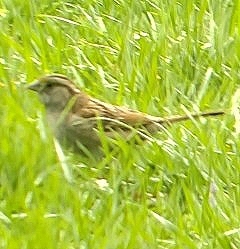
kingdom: Animalia
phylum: Chordata
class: Aves
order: Passeriformes
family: Passerellidae
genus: Zonotrichia
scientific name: Zonotrichia albicollis
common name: White-throated sparrow
